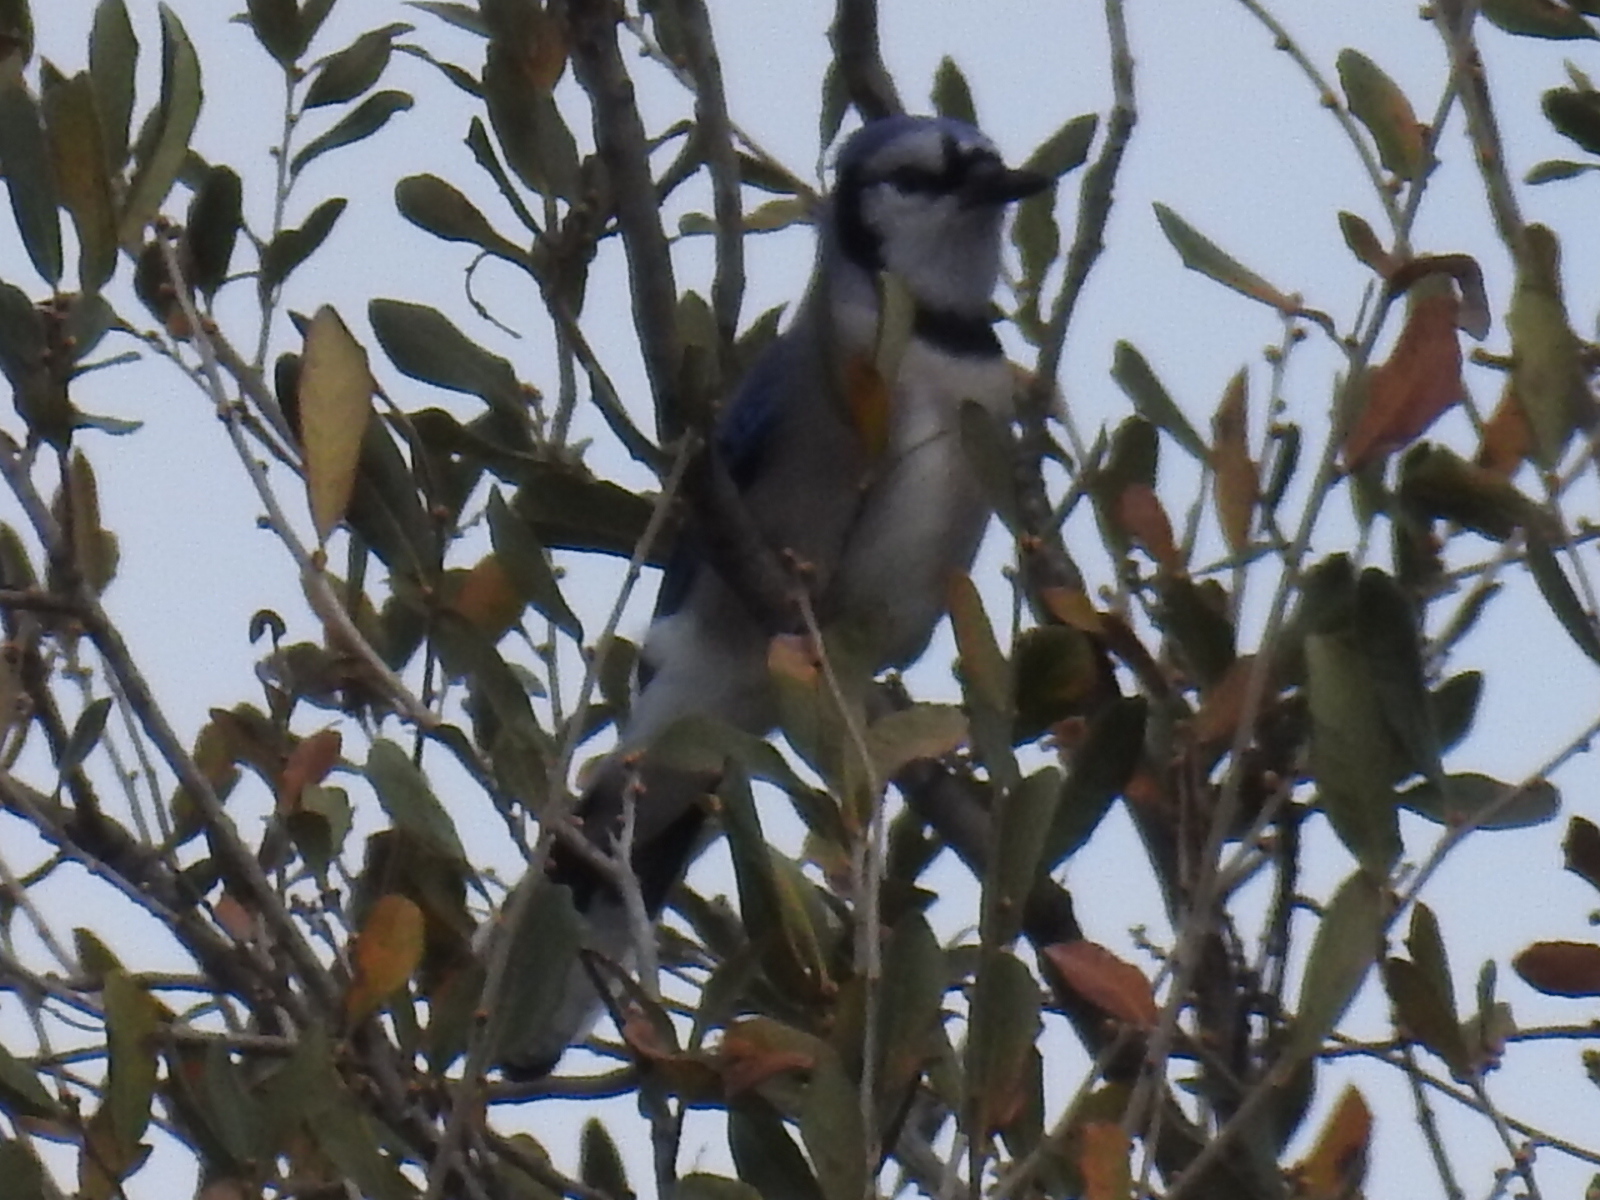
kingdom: Animalia
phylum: Chordata
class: Aves
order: Passeriformes
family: Corvidae
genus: Cyanocitta
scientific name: Cyanocitta cristata
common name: Blue jay
